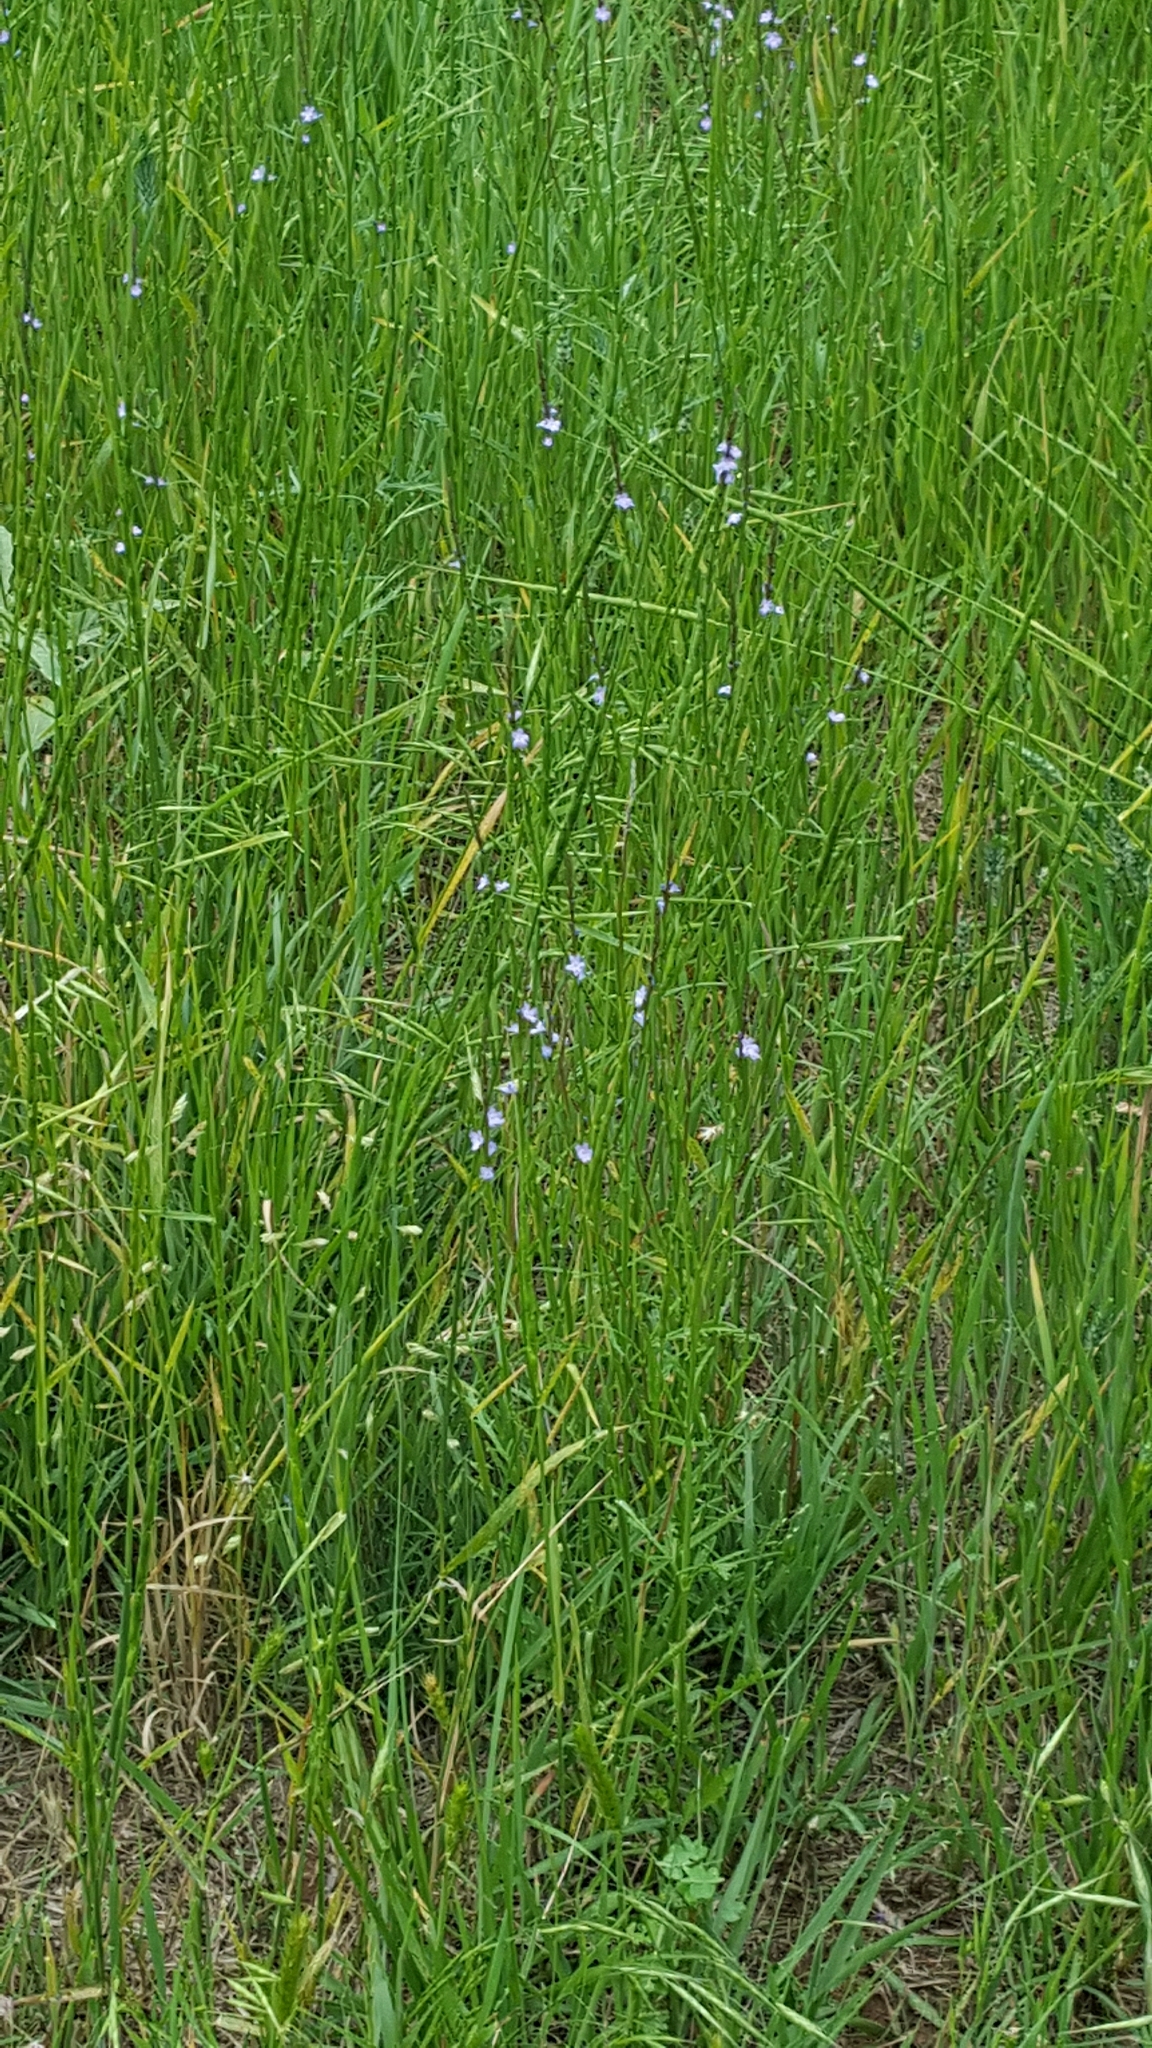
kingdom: Plantae
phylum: Tracheophyta
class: Magnoliopsida
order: Lamiales
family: Verbenaceae
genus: Verbena
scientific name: Verbena halei
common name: Texas vervain
